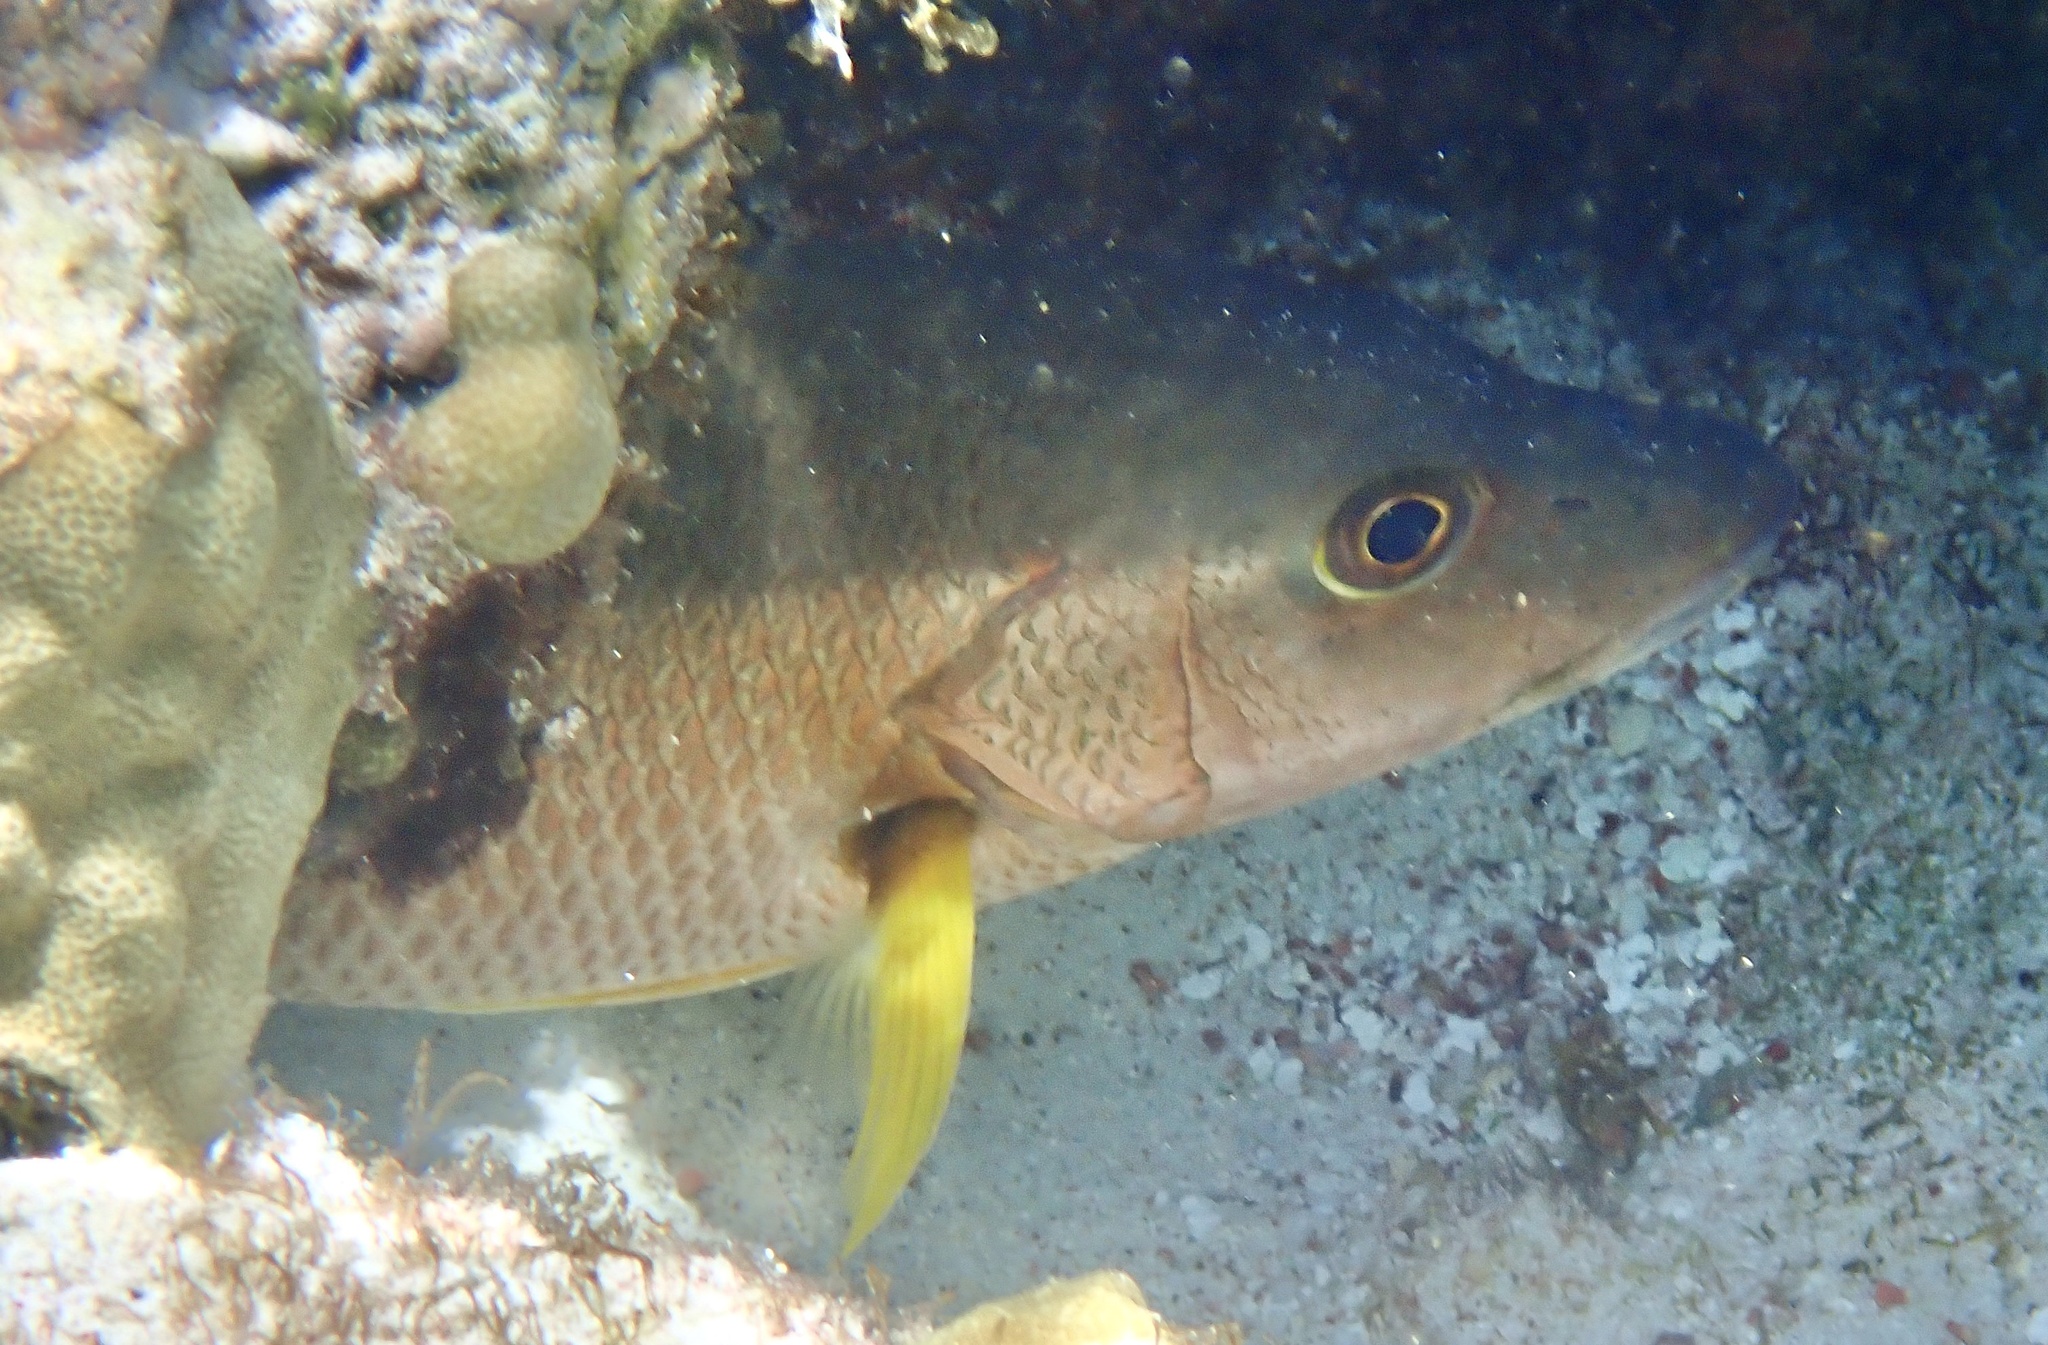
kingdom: Animalia
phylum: Chordata
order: Perciformes
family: Lutjanidae
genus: Lutjanus
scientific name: Lutjanus apodus
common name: Schoolmaster
